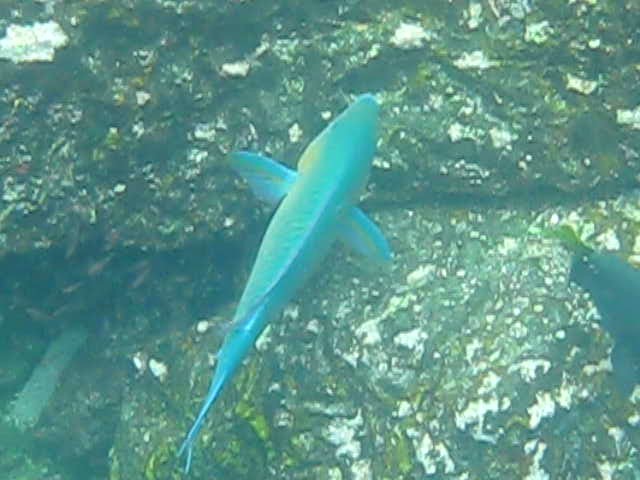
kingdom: Animalia
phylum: Chordata
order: Perciformes
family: Scaridae
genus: Scarus
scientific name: Scarus rubroviolaceus
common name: Ember parrotfish
